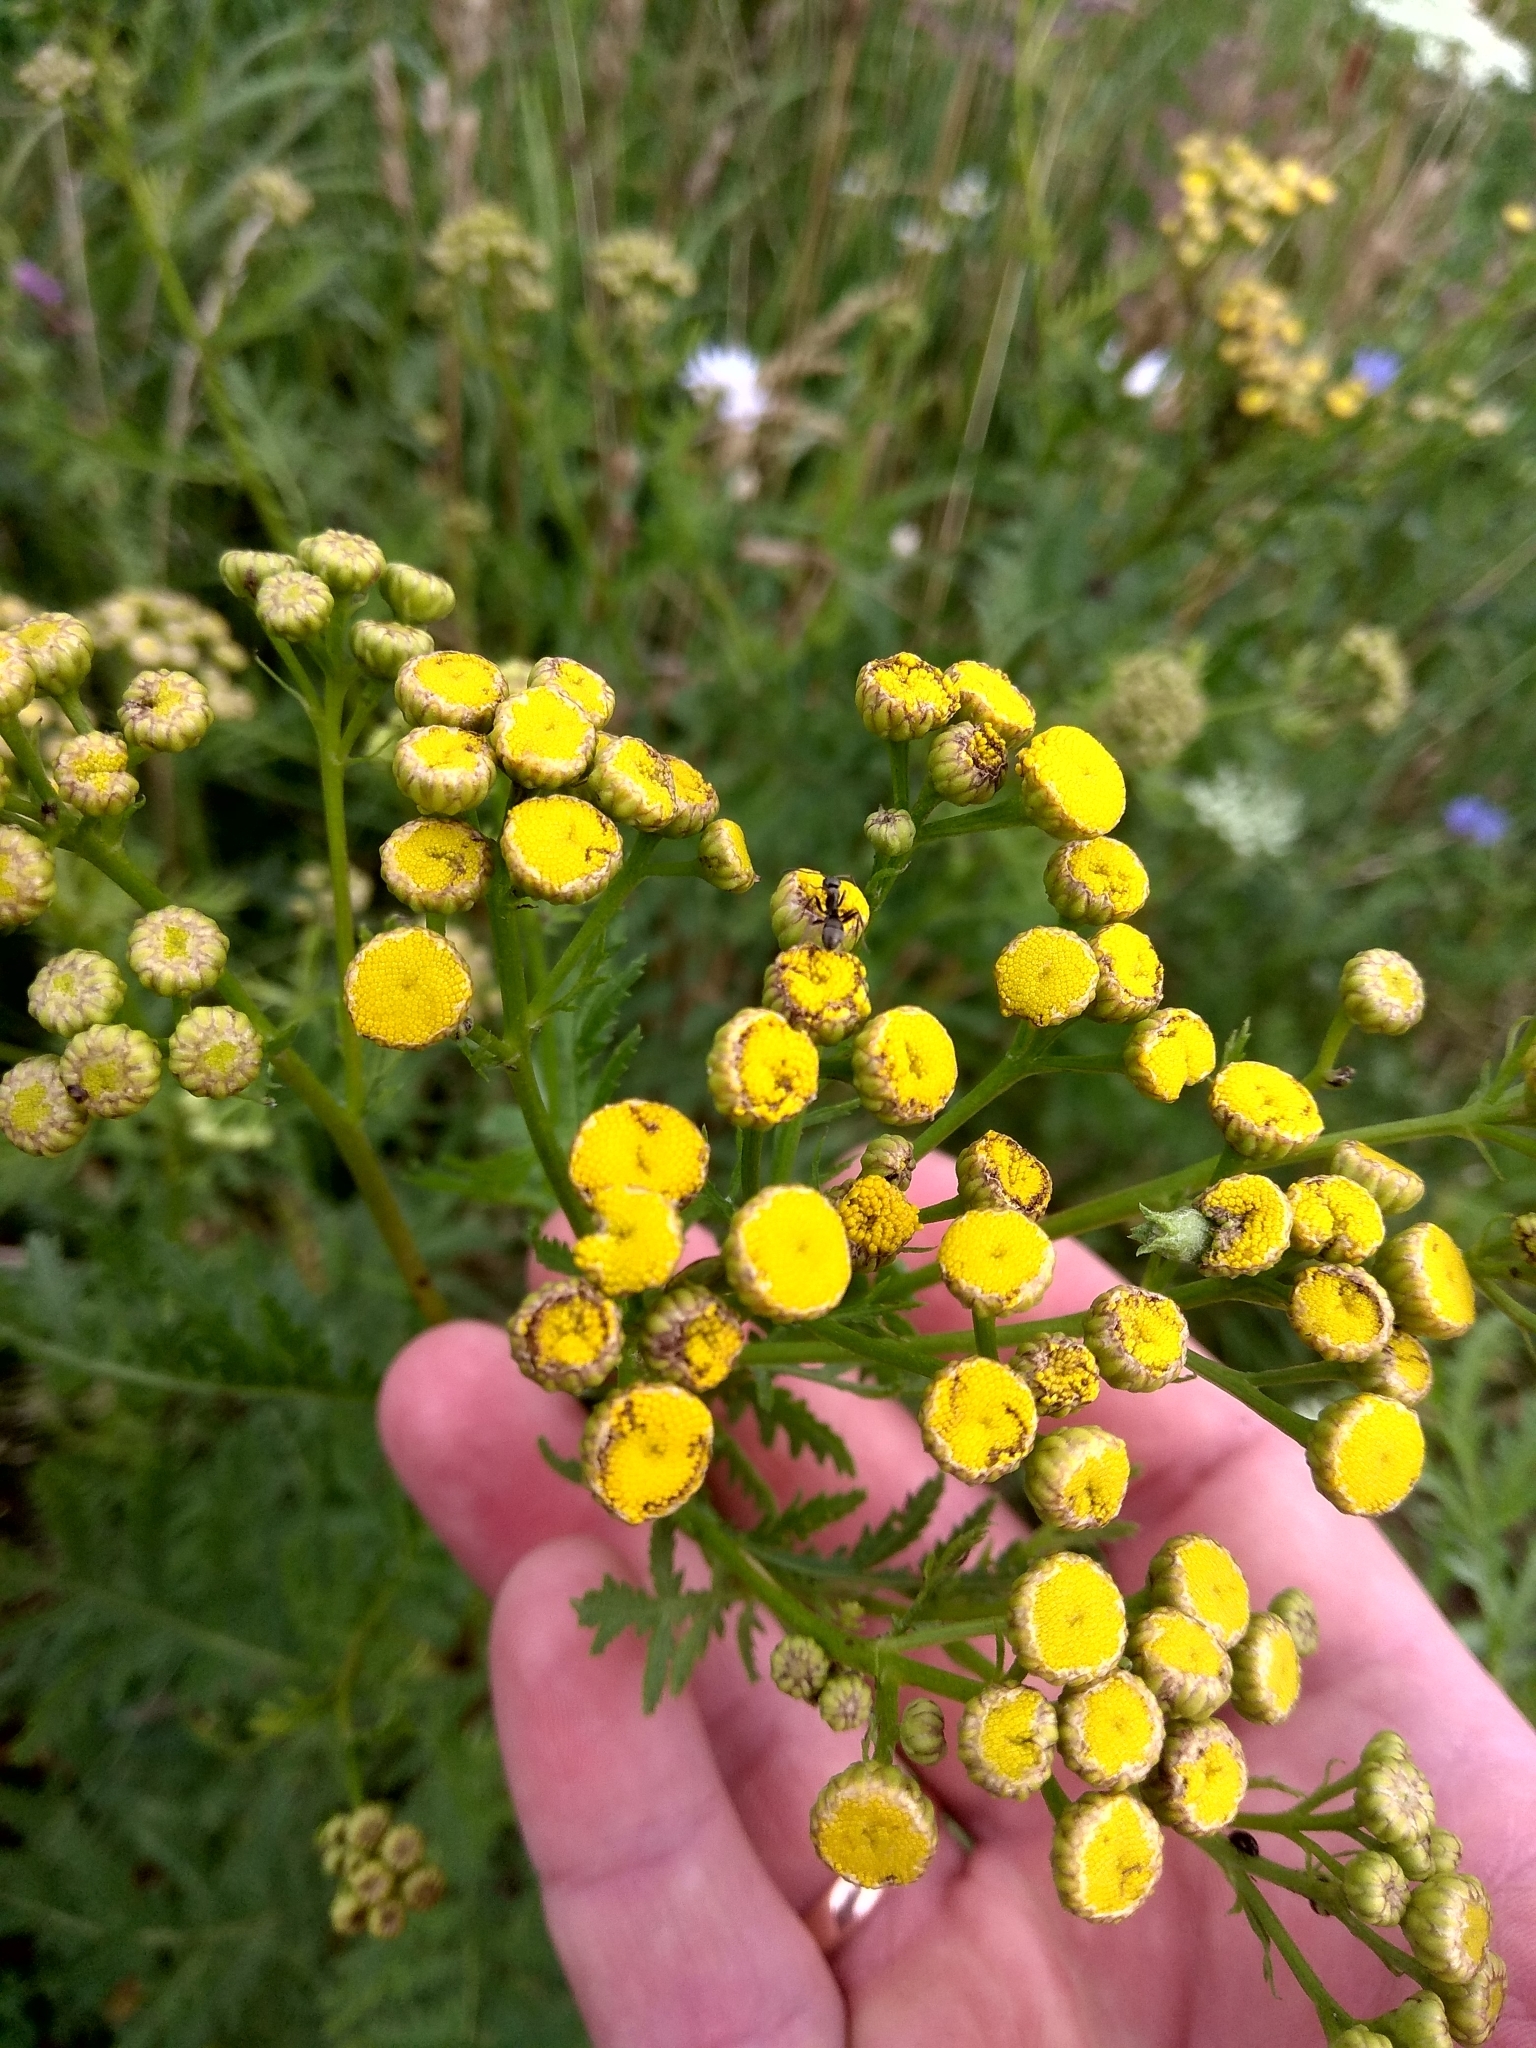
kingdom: Plantae
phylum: Tracheophyta
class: Magnoliopsida
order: Asterales
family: Asteraceae
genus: Tanacetum
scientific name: Tanacetum vulgare
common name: Common tansy
